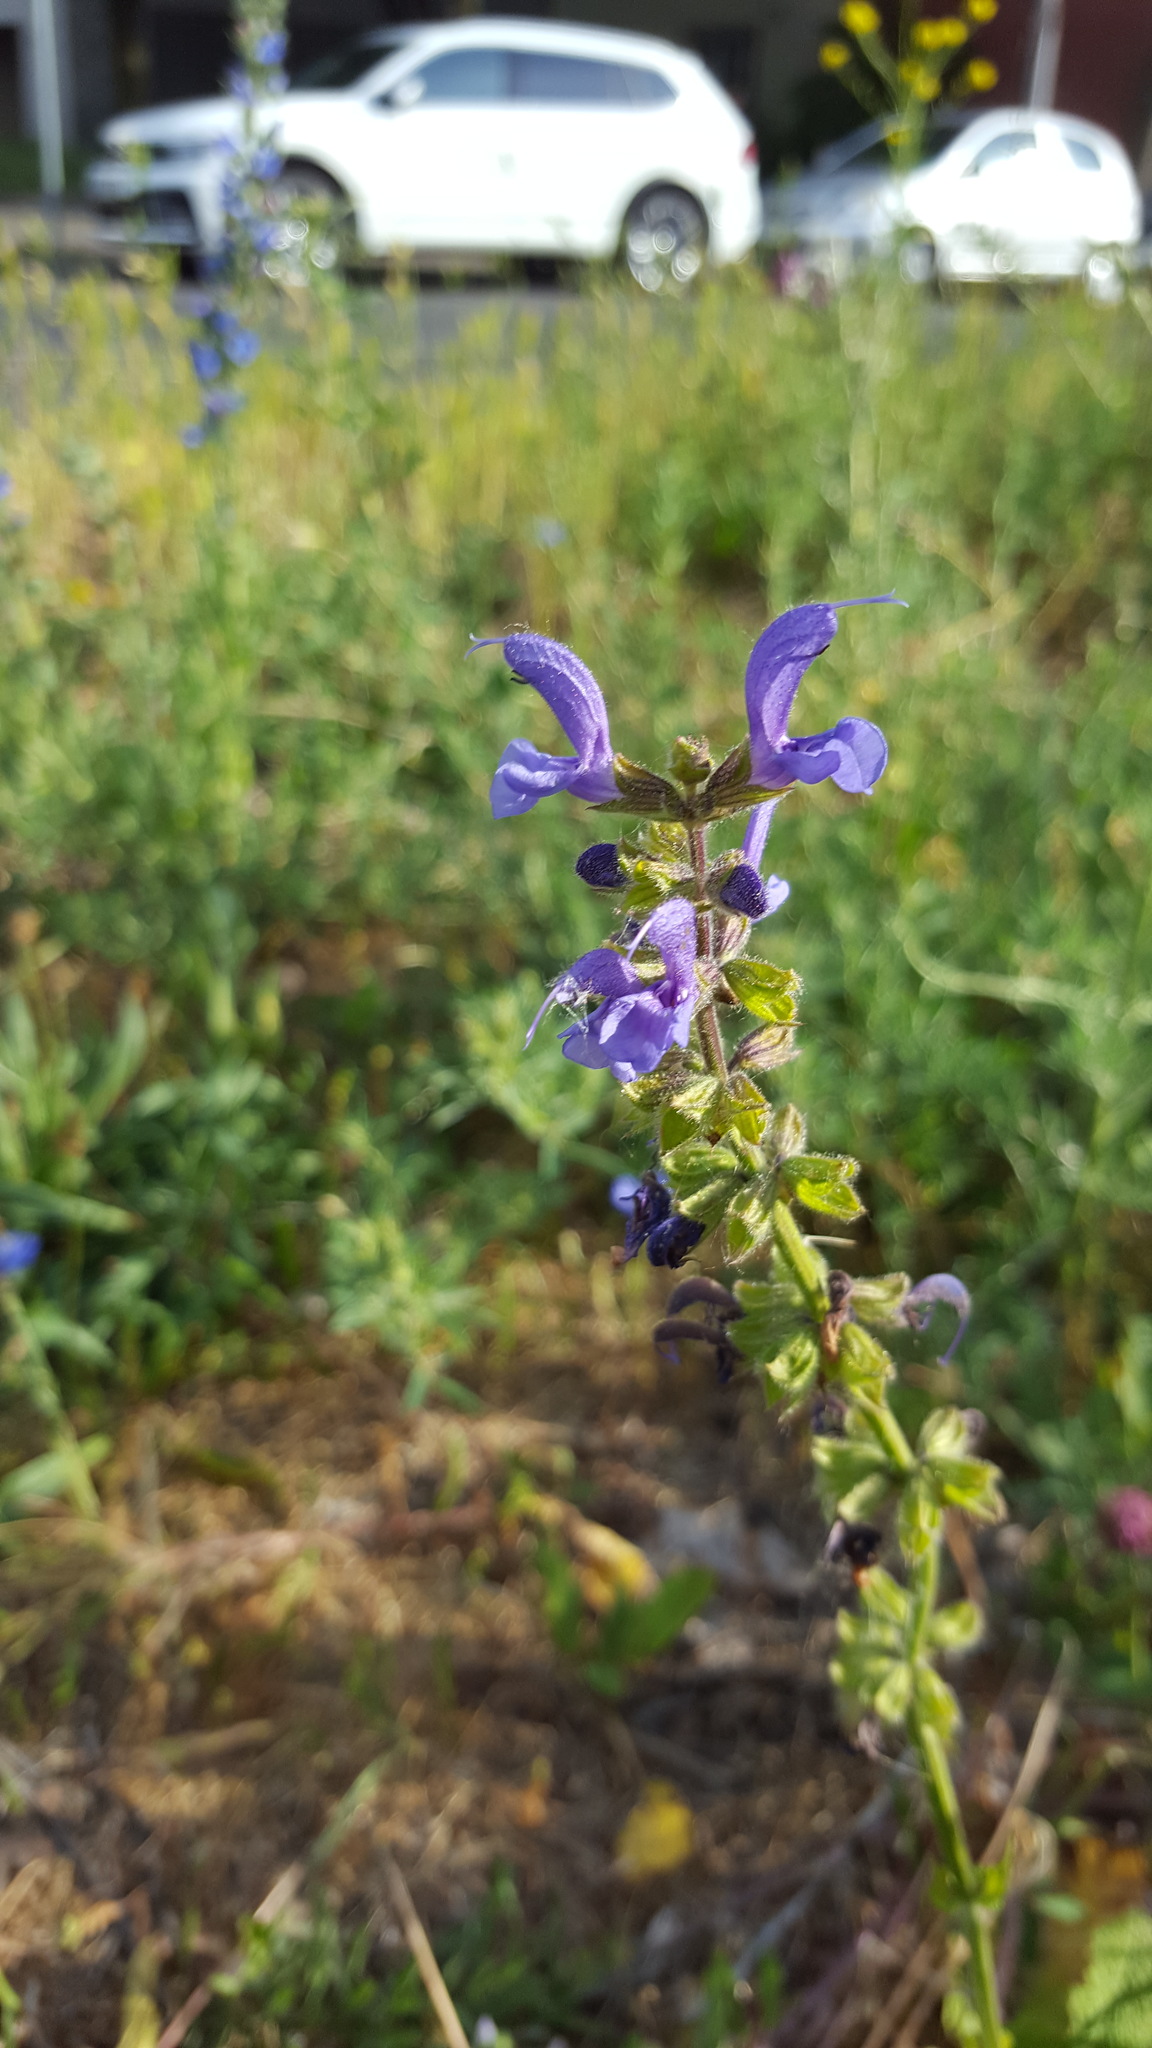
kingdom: Plantae
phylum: Tracheophyta
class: Magnoliopsida
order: Lamiales
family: Lamiaceae
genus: Salvia
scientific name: Salvia pratensis
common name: Meadow sage
